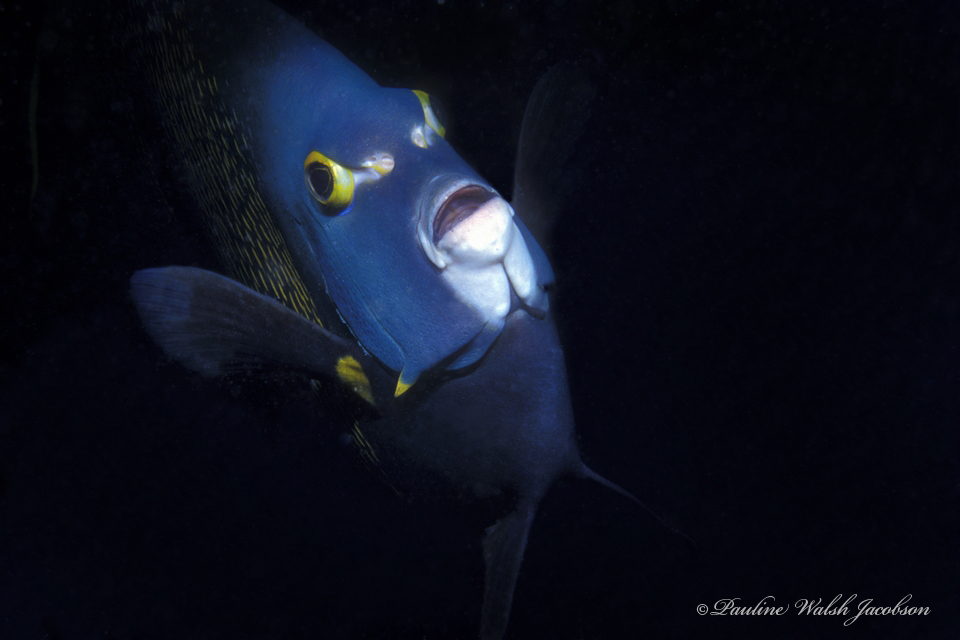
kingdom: Animalia
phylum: Chordata
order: Perciformes
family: Pomacanthidae
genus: Pomacanthus
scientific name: Pomacanthus paru
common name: French angelfish
